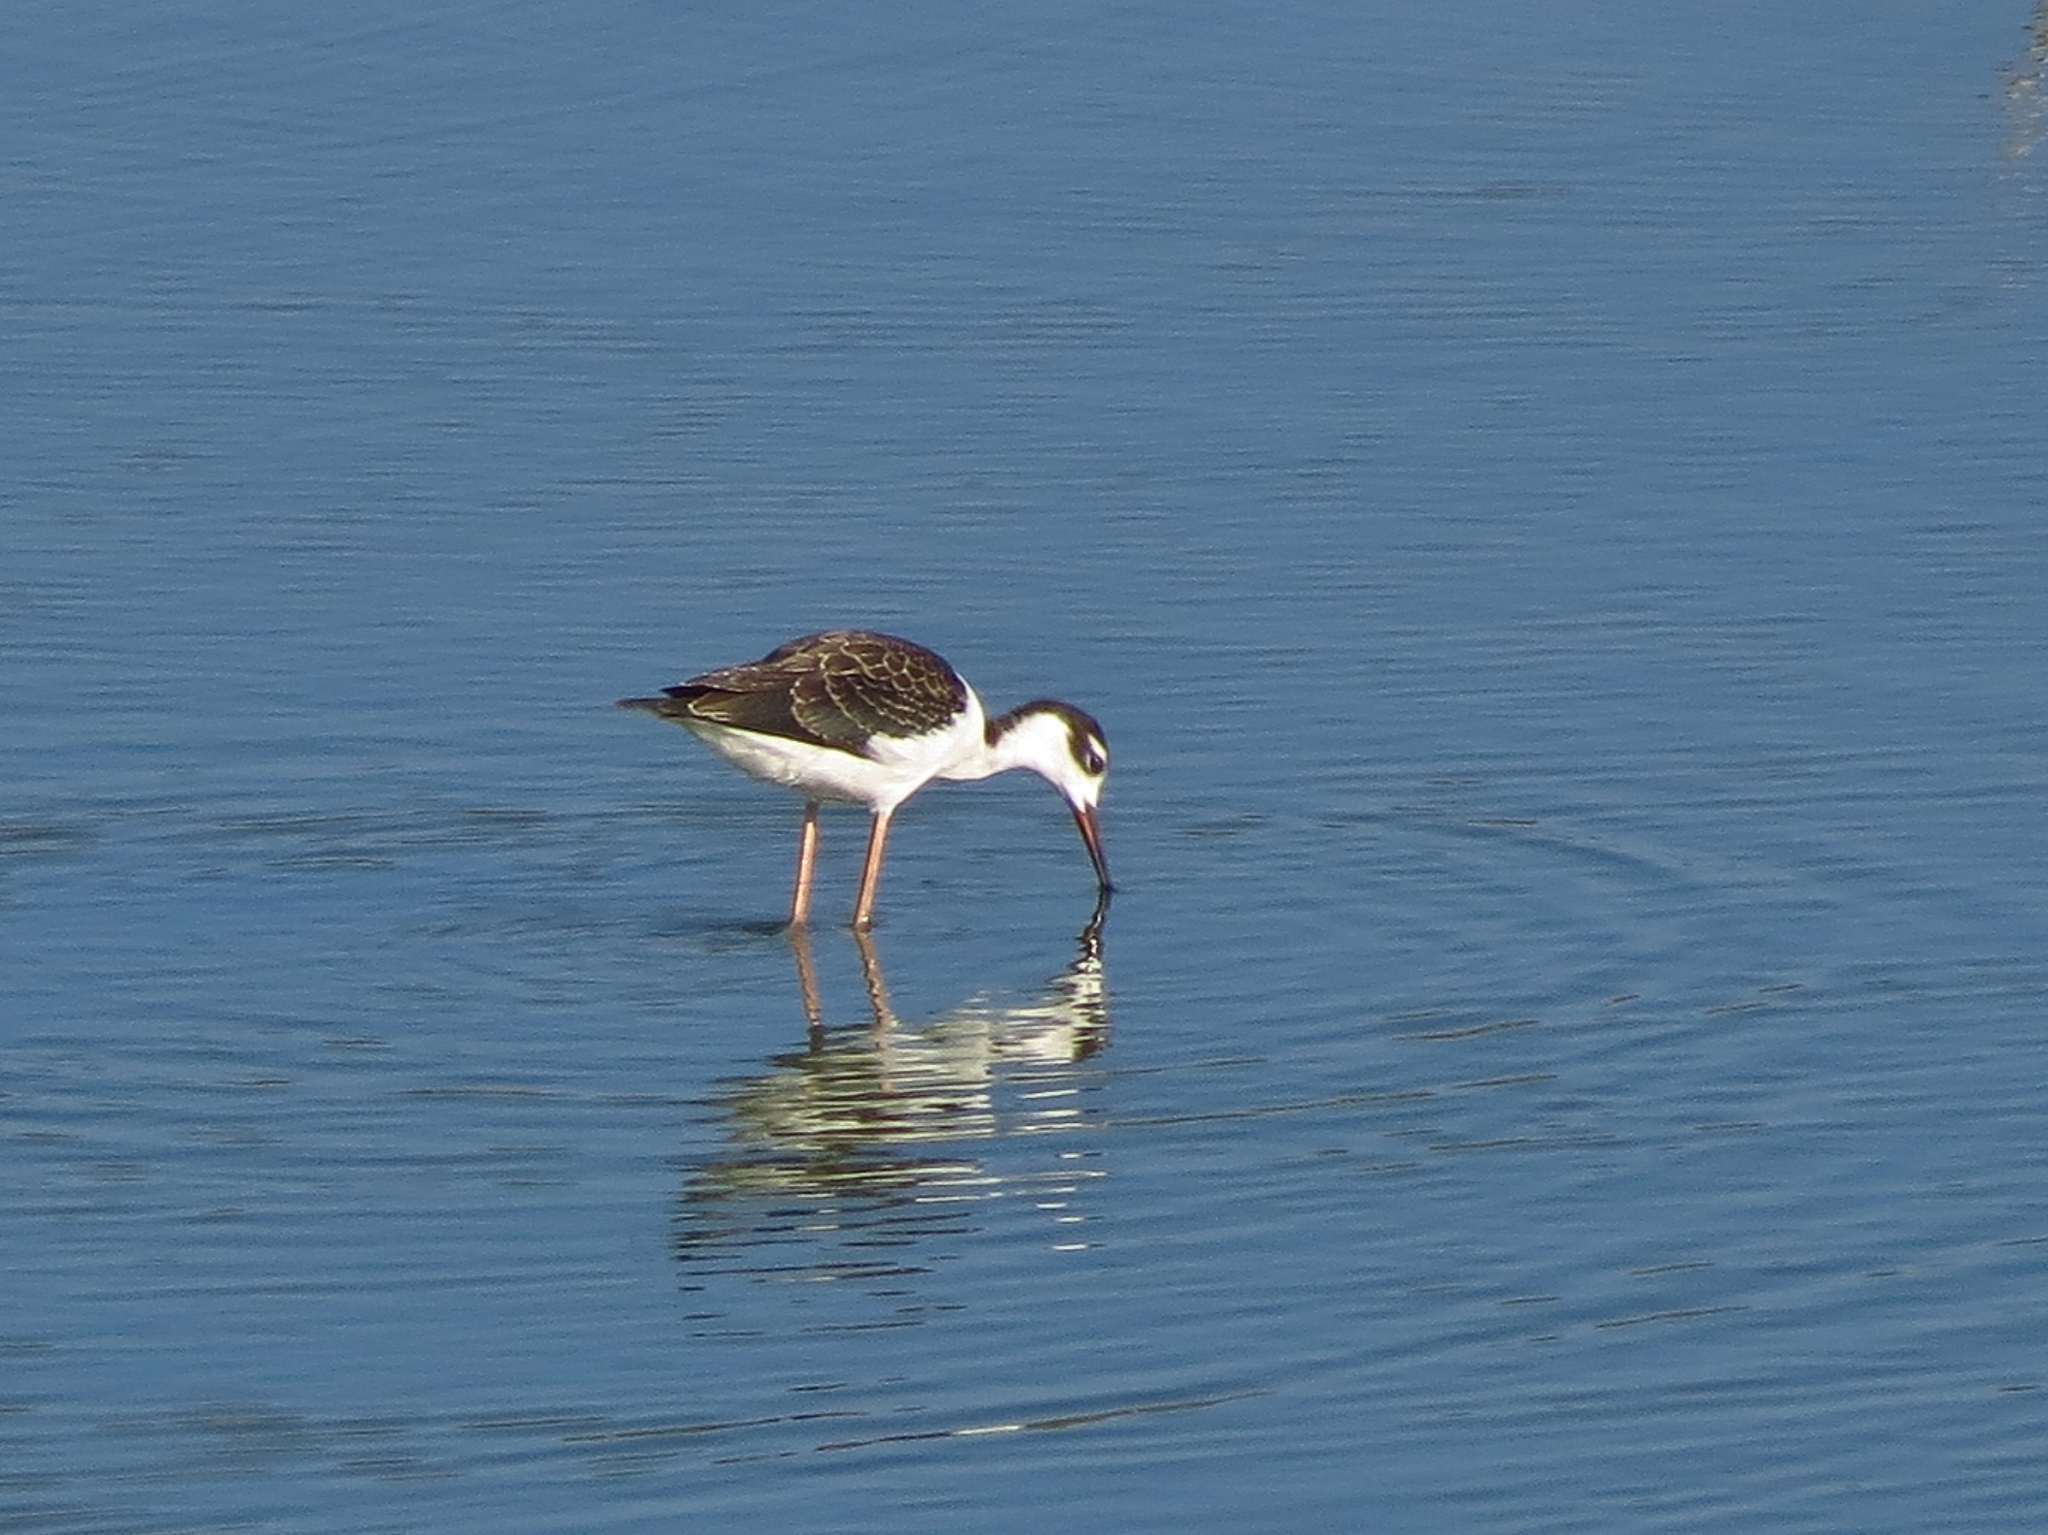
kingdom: Animalia
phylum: Chordata
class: Aves
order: Charadriiformes
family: Recurvirostridae
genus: Himantopus
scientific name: Himantopus mexicanus
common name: Black-necked stilt
